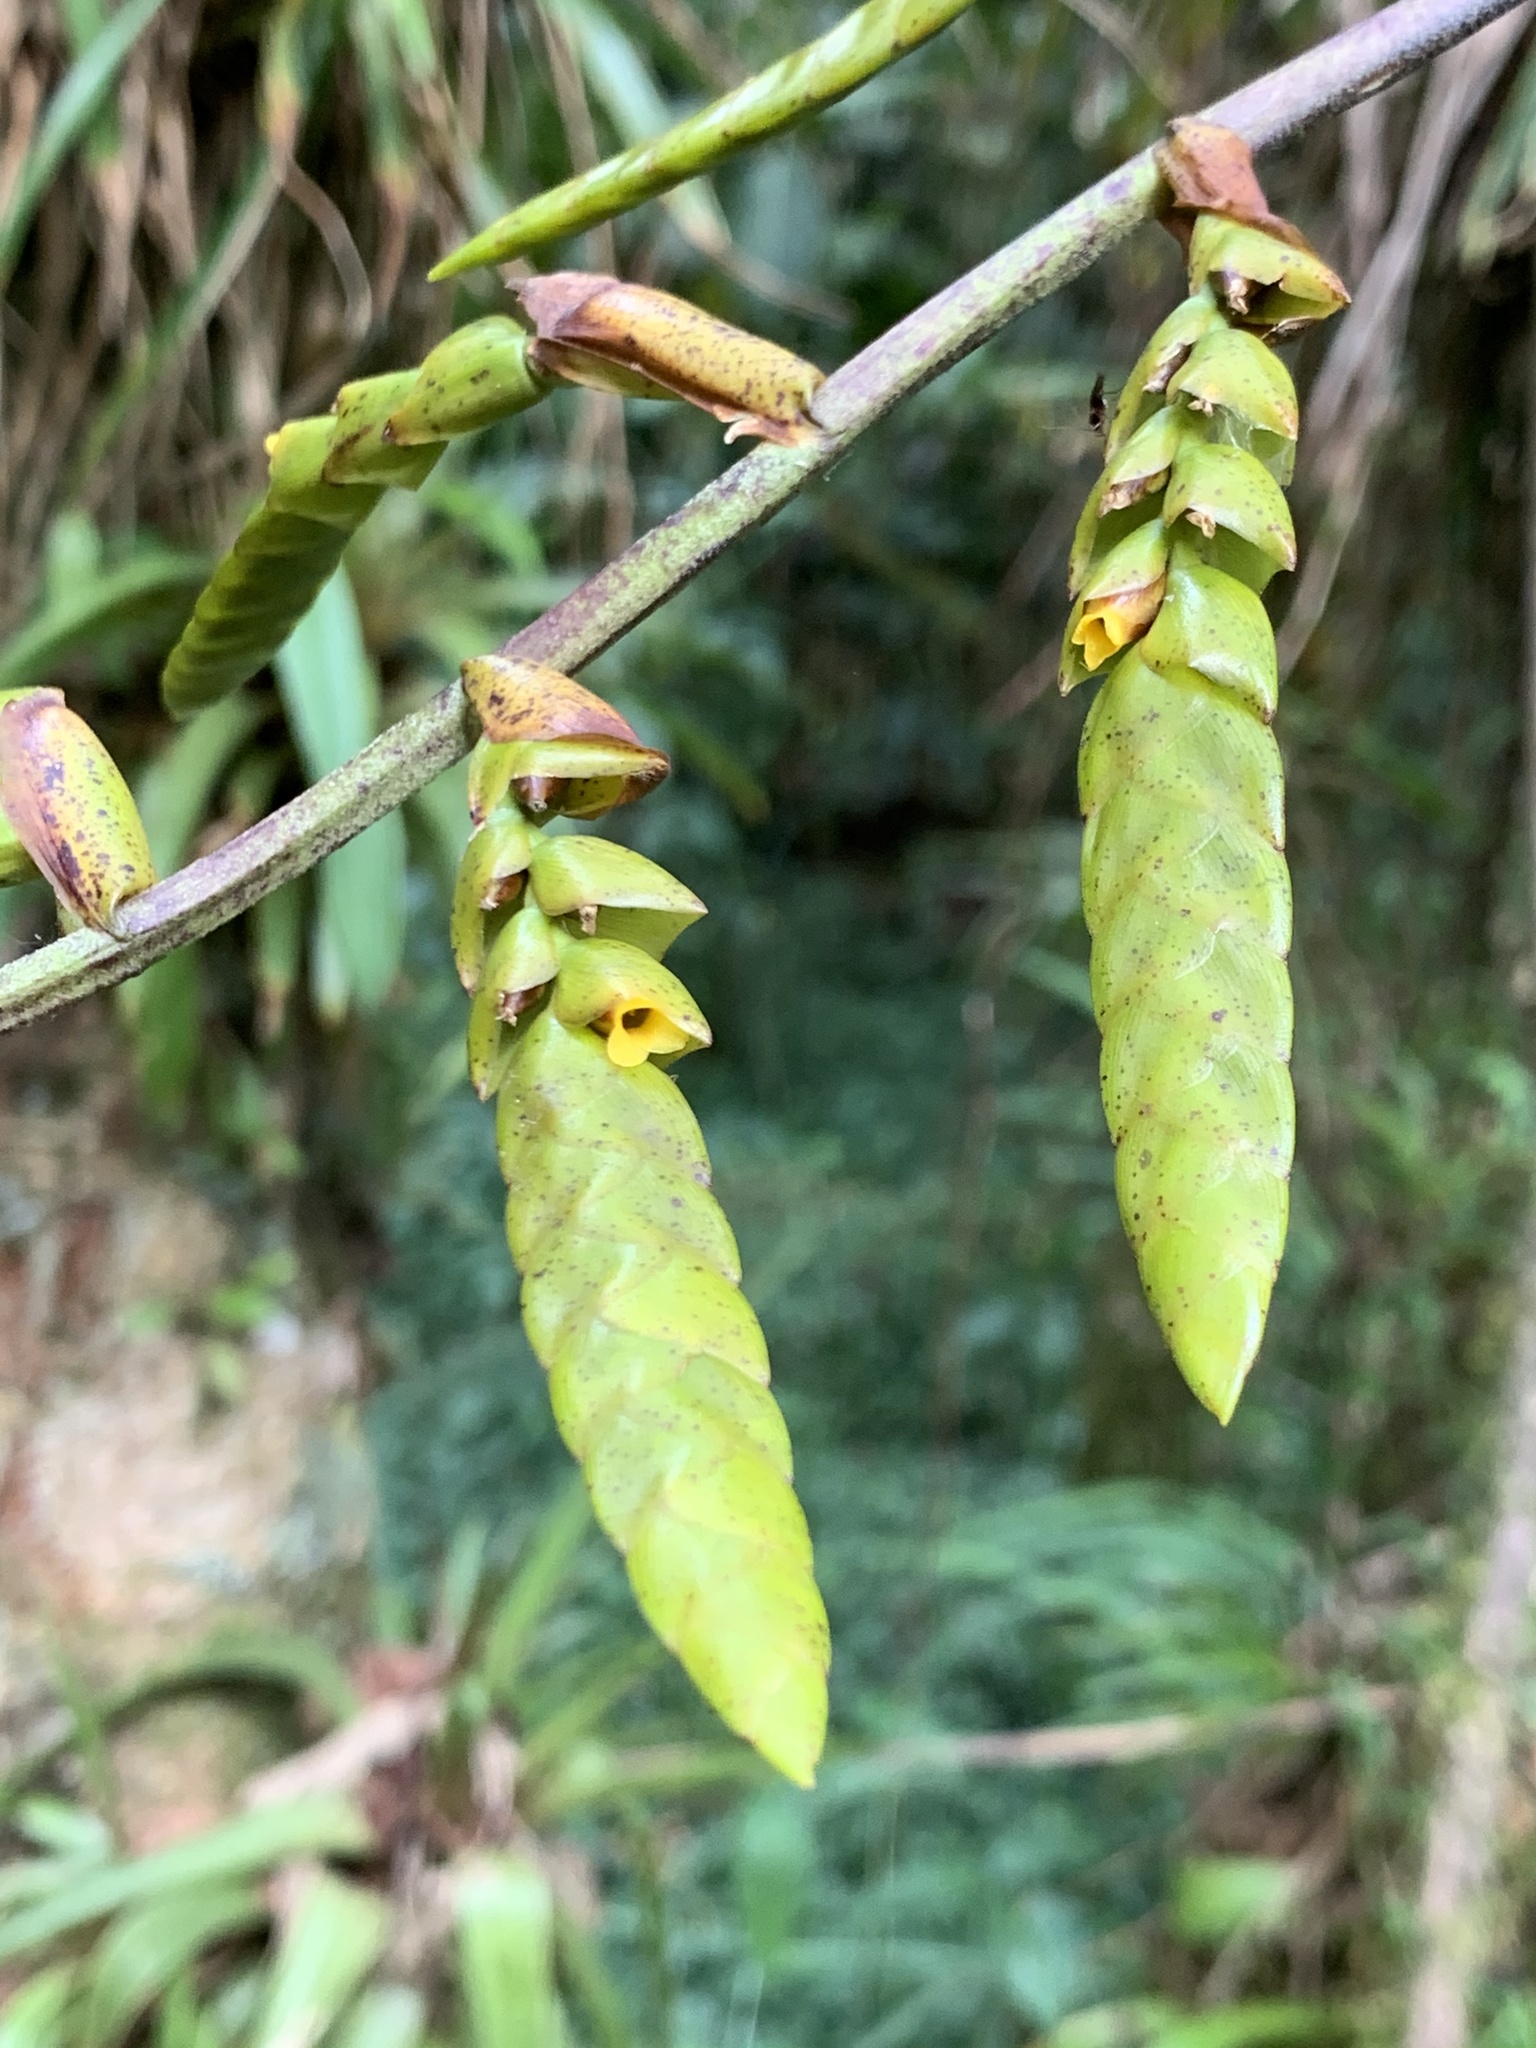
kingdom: Plantae
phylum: Tracheophyta
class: Liliopsida
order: Poales
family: Bromeliaceae
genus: Racinaea
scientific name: Racinaea goudae
